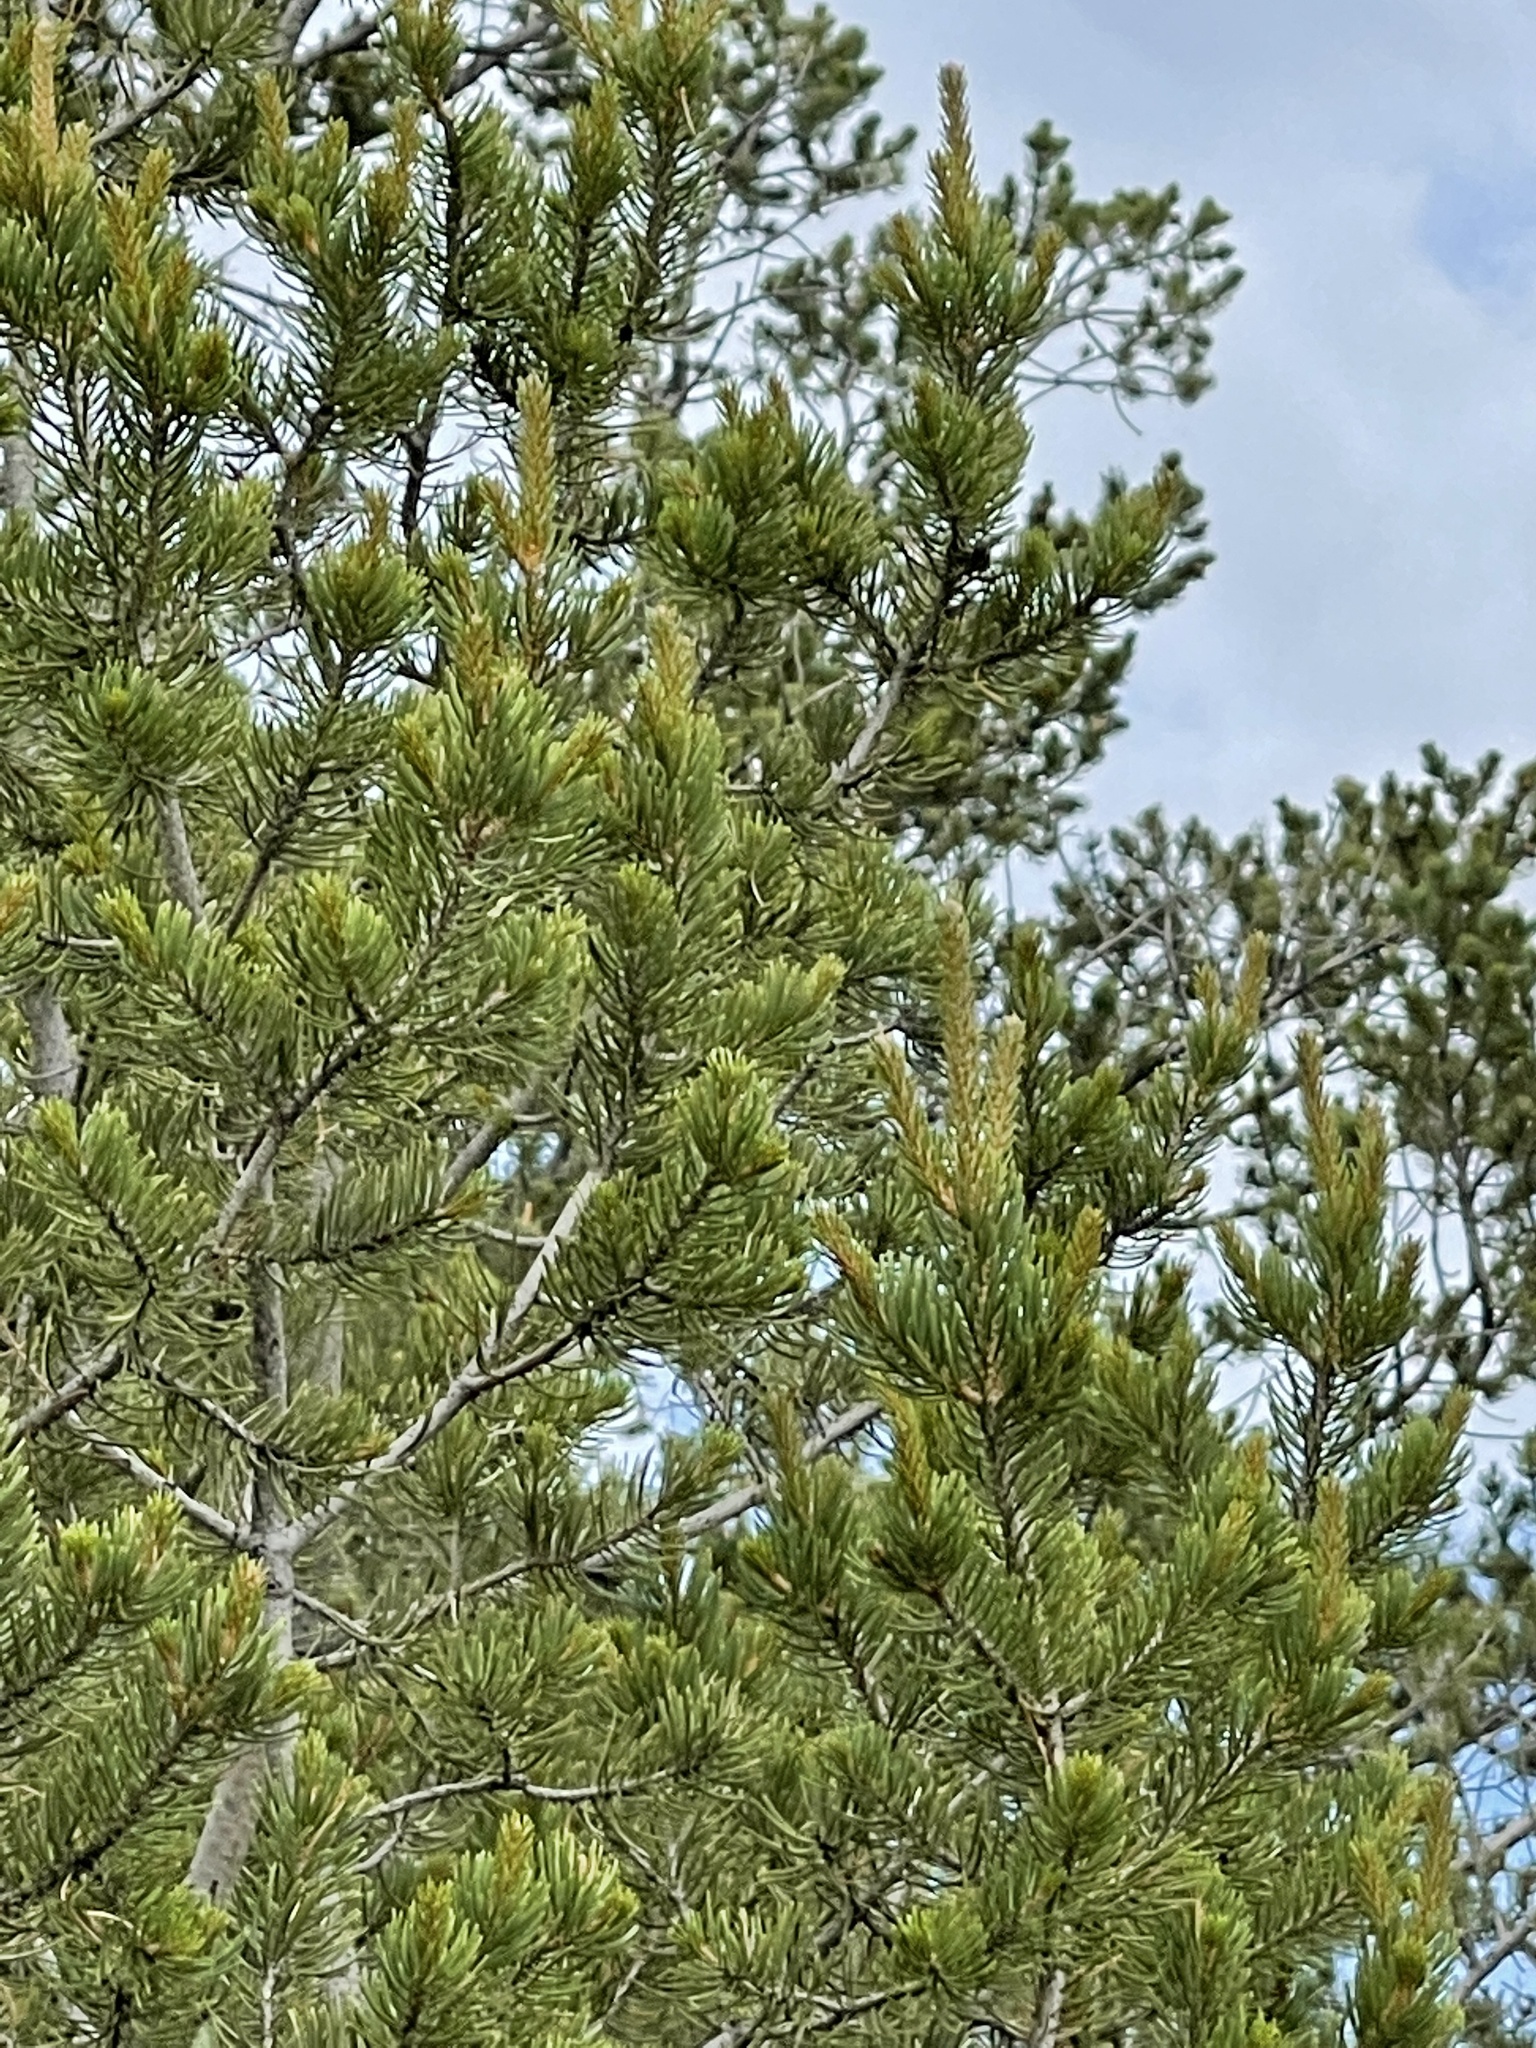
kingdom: Plantae
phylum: Tracheophyta
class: Pinopsida
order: Pinales
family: Pinaceae
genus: Pinus
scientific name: Pinus edulis
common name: Colorado pinyon
